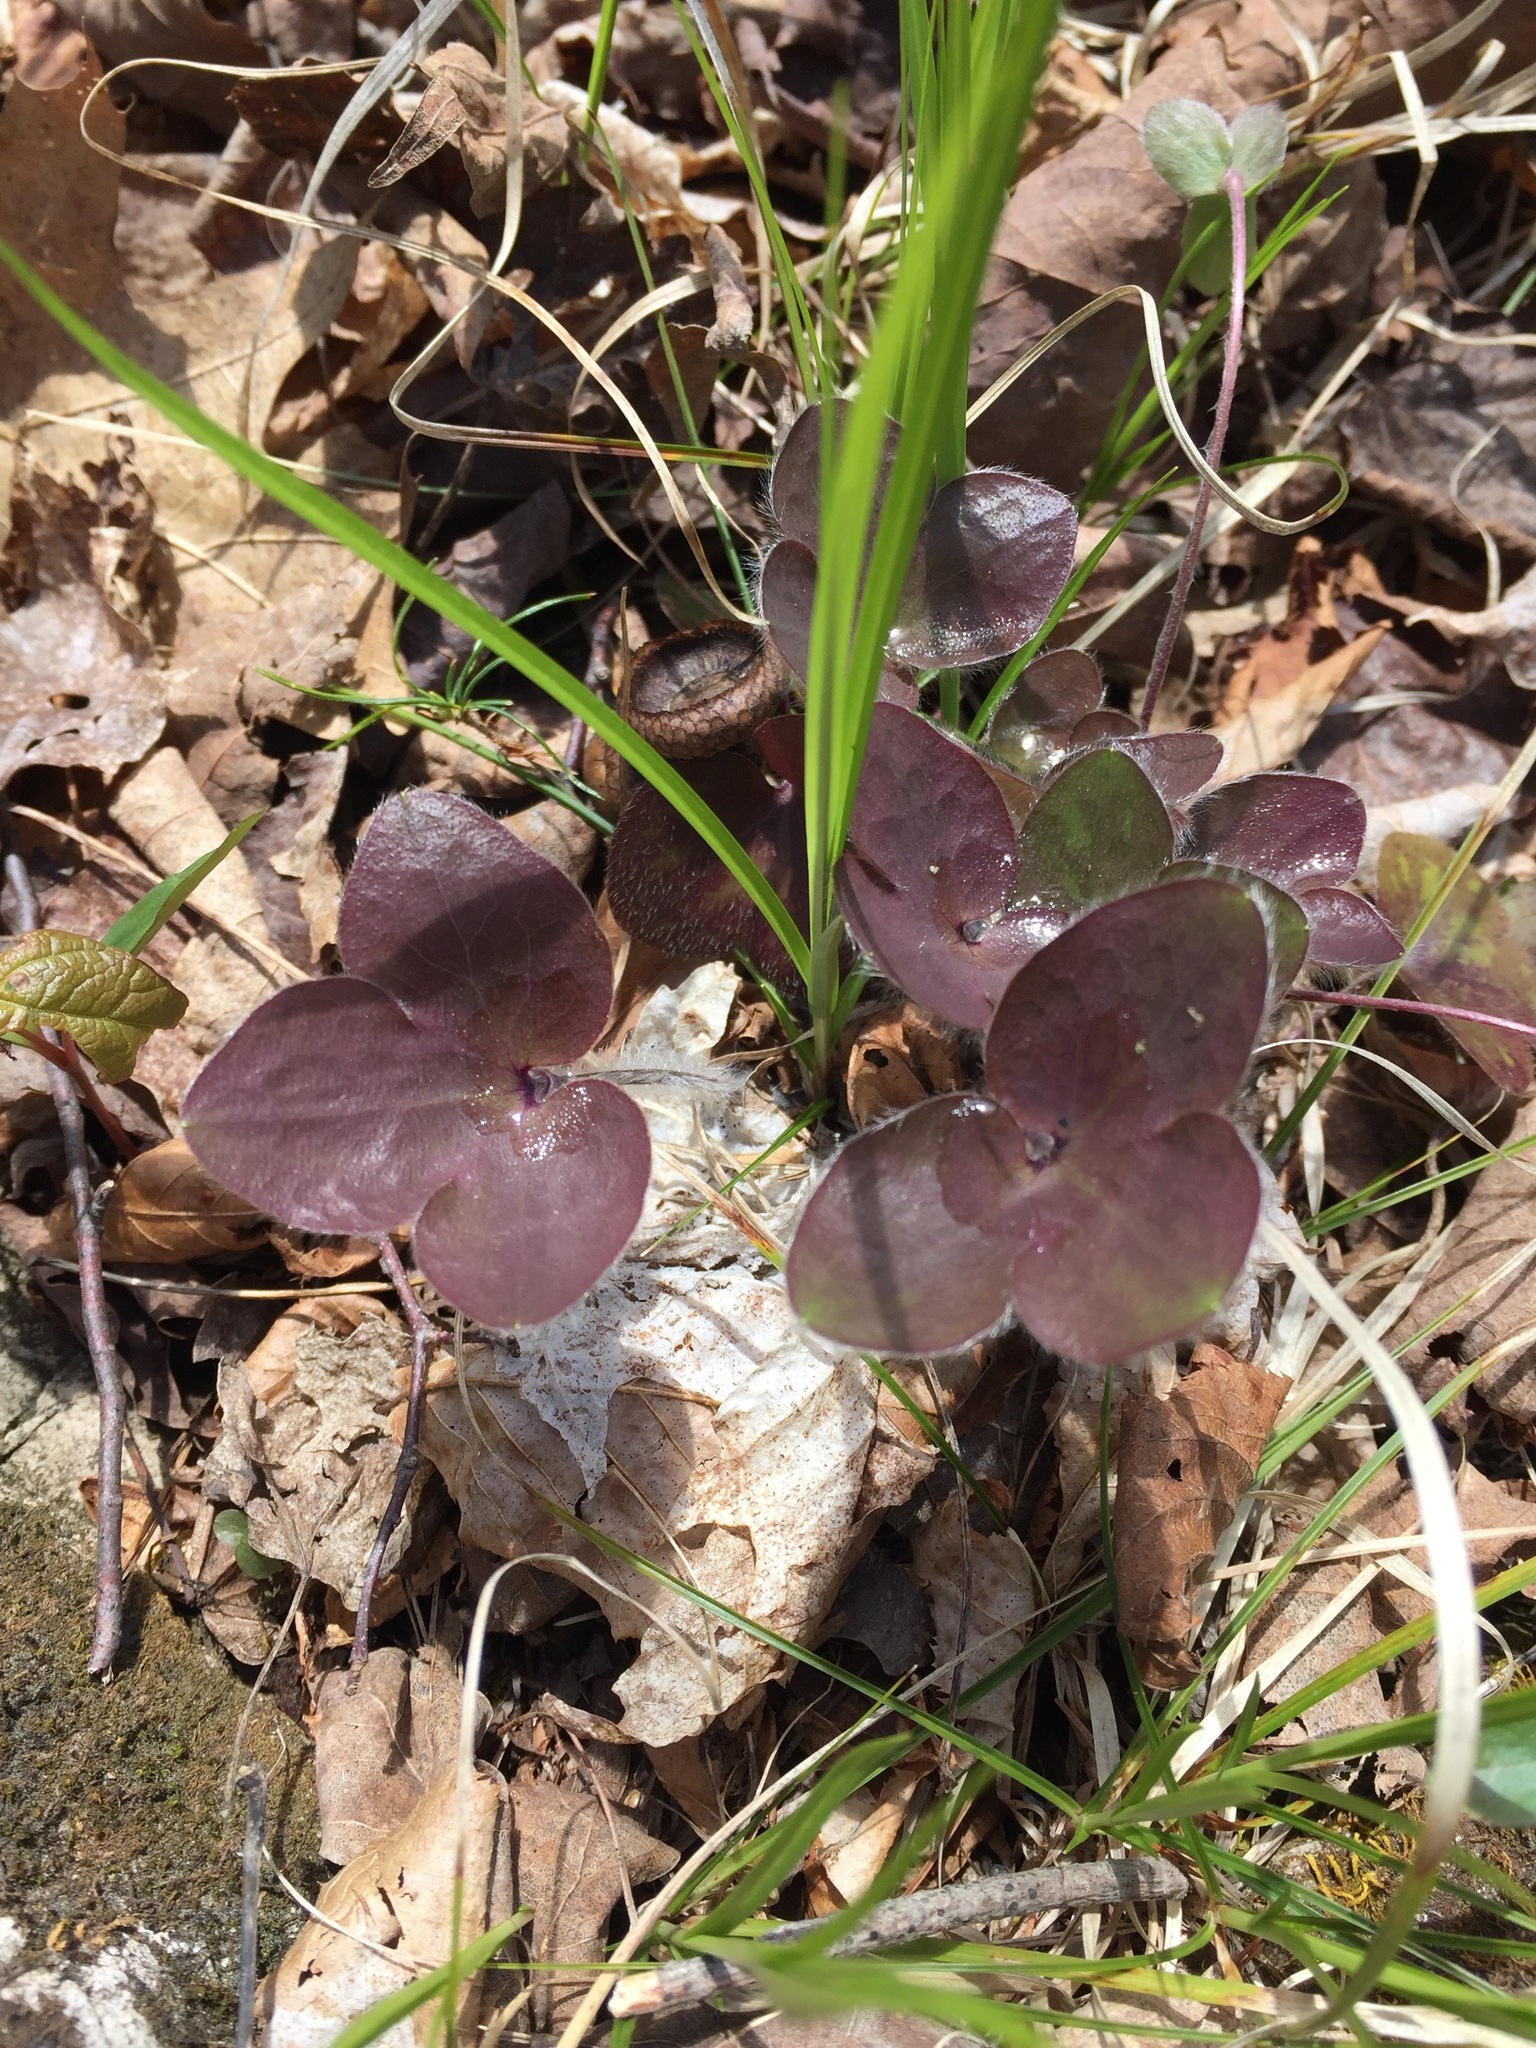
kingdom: Plantae
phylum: Tracheophyta
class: Magnoliopsida
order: Ranunculales
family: Ranunculaceae
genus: Hepatica
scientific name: Hepatica americana
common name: American hepatica
